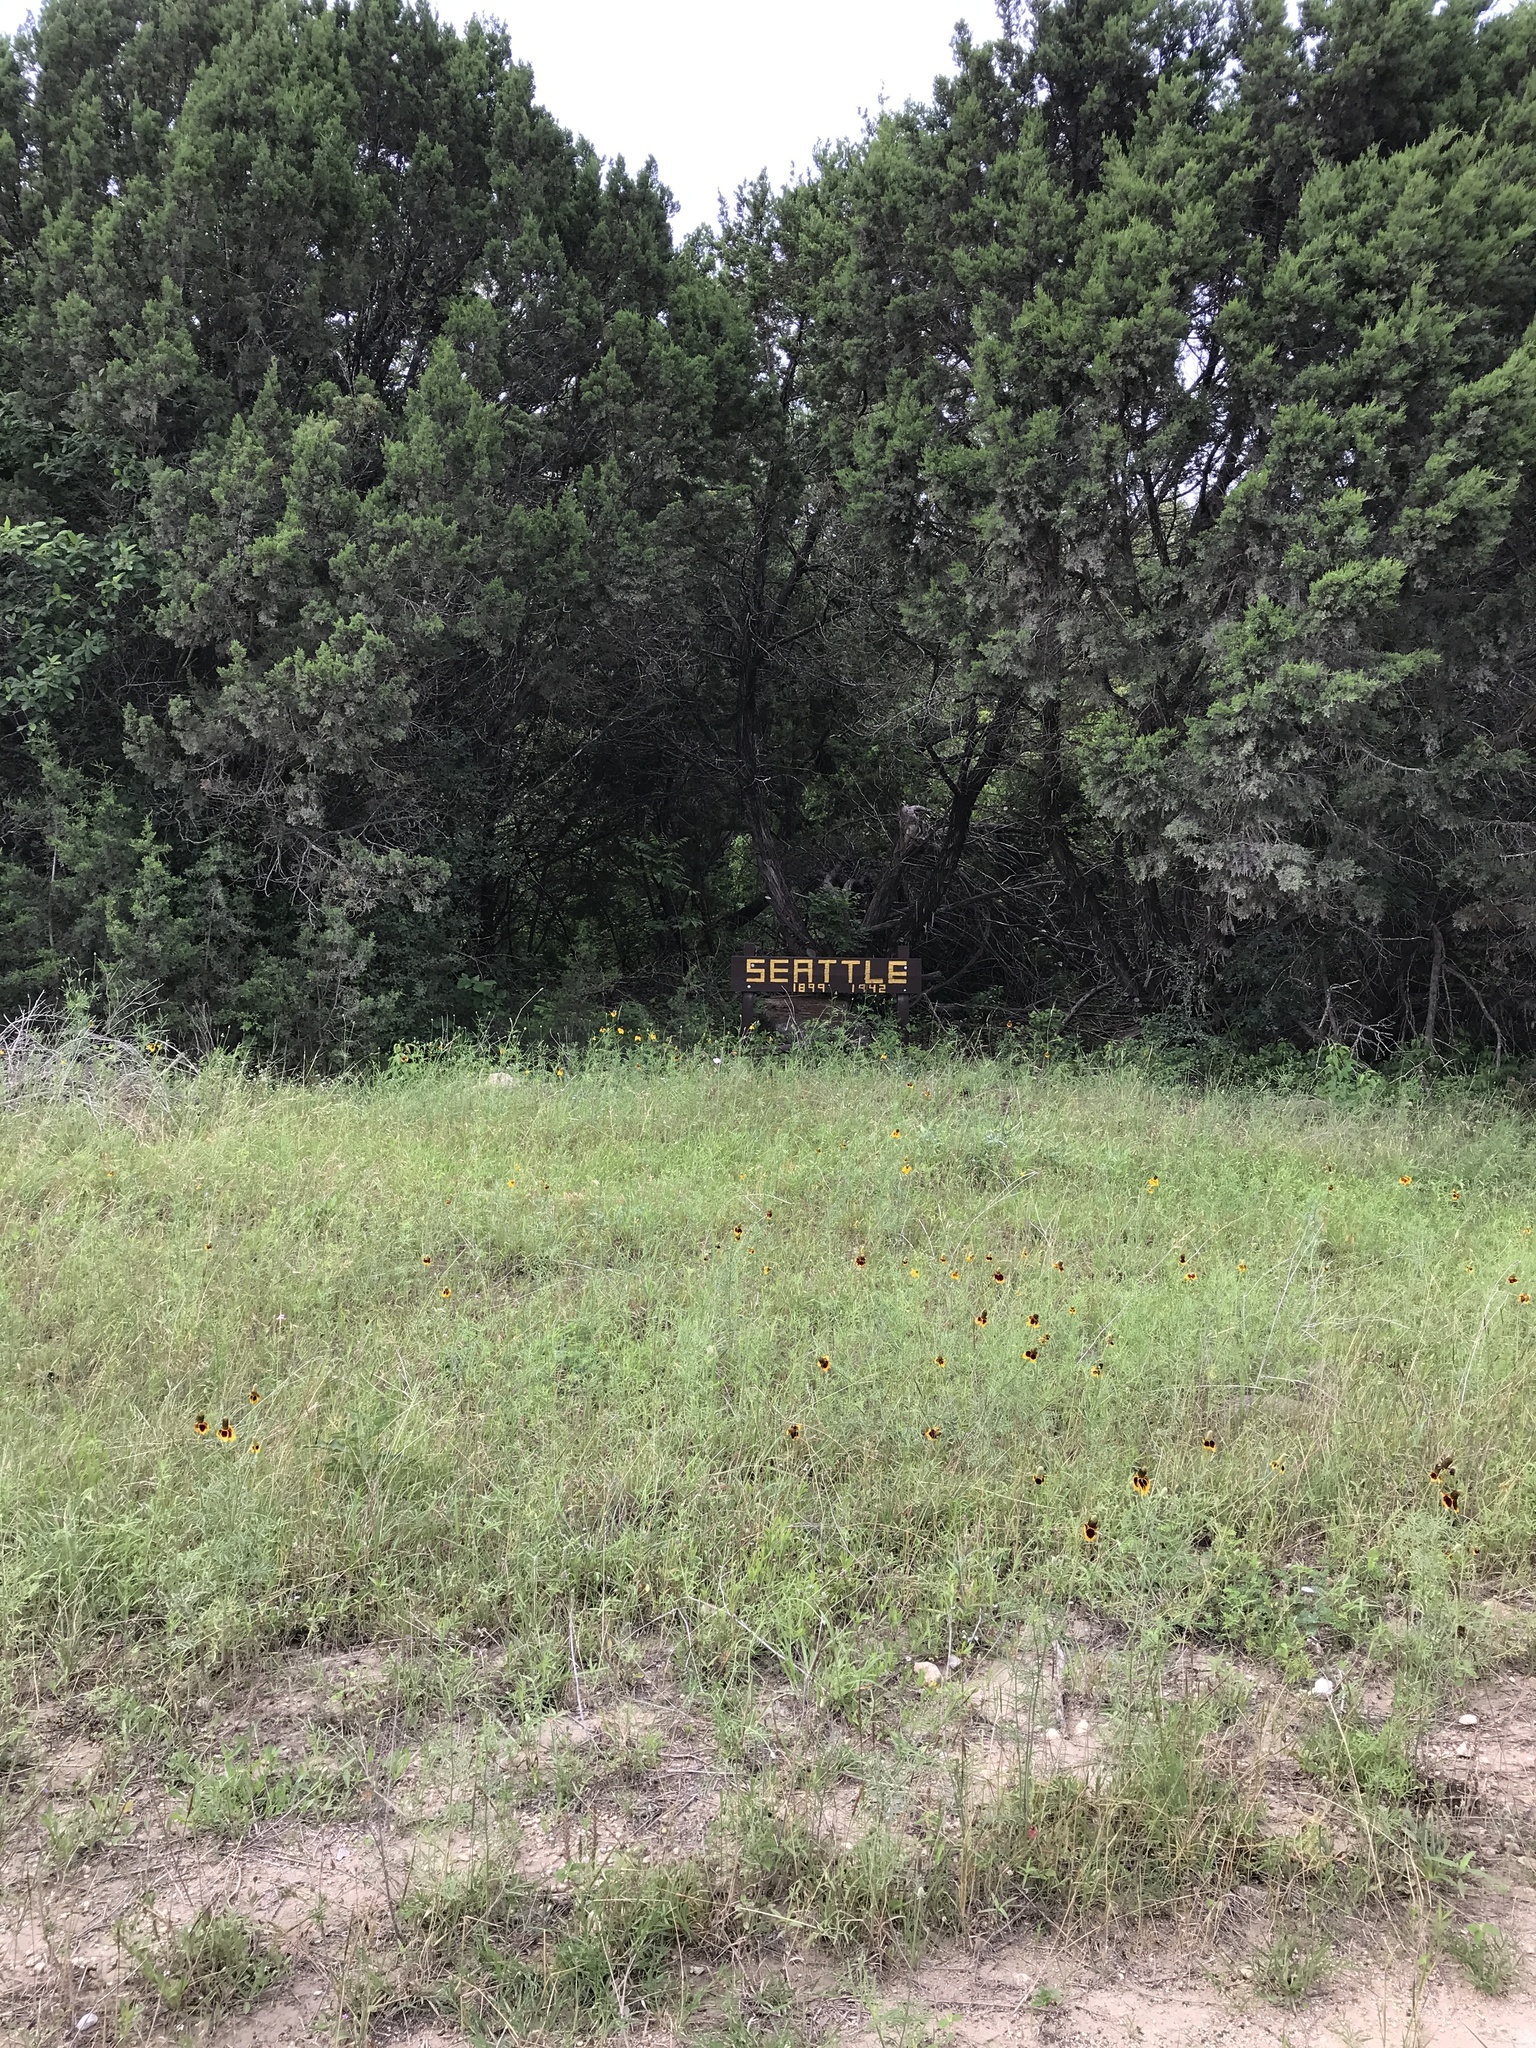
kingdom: Plantae
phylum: Tracheophyta
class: Magnoliopsida
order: Asterales
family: Asteraceae
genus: Ratibida
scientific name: Ratibida columnifera
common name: Prairie coneflower
